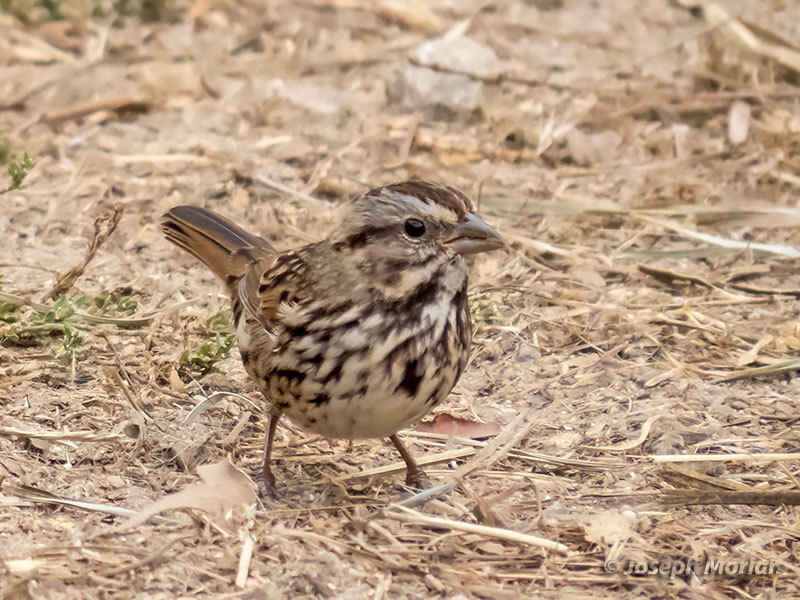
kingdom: Animalia
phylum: Chordata
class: Aves
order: Passeriformes
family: Passerellidae
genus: Melospiza
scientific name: Melospiza melodia
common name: Song sparrow
